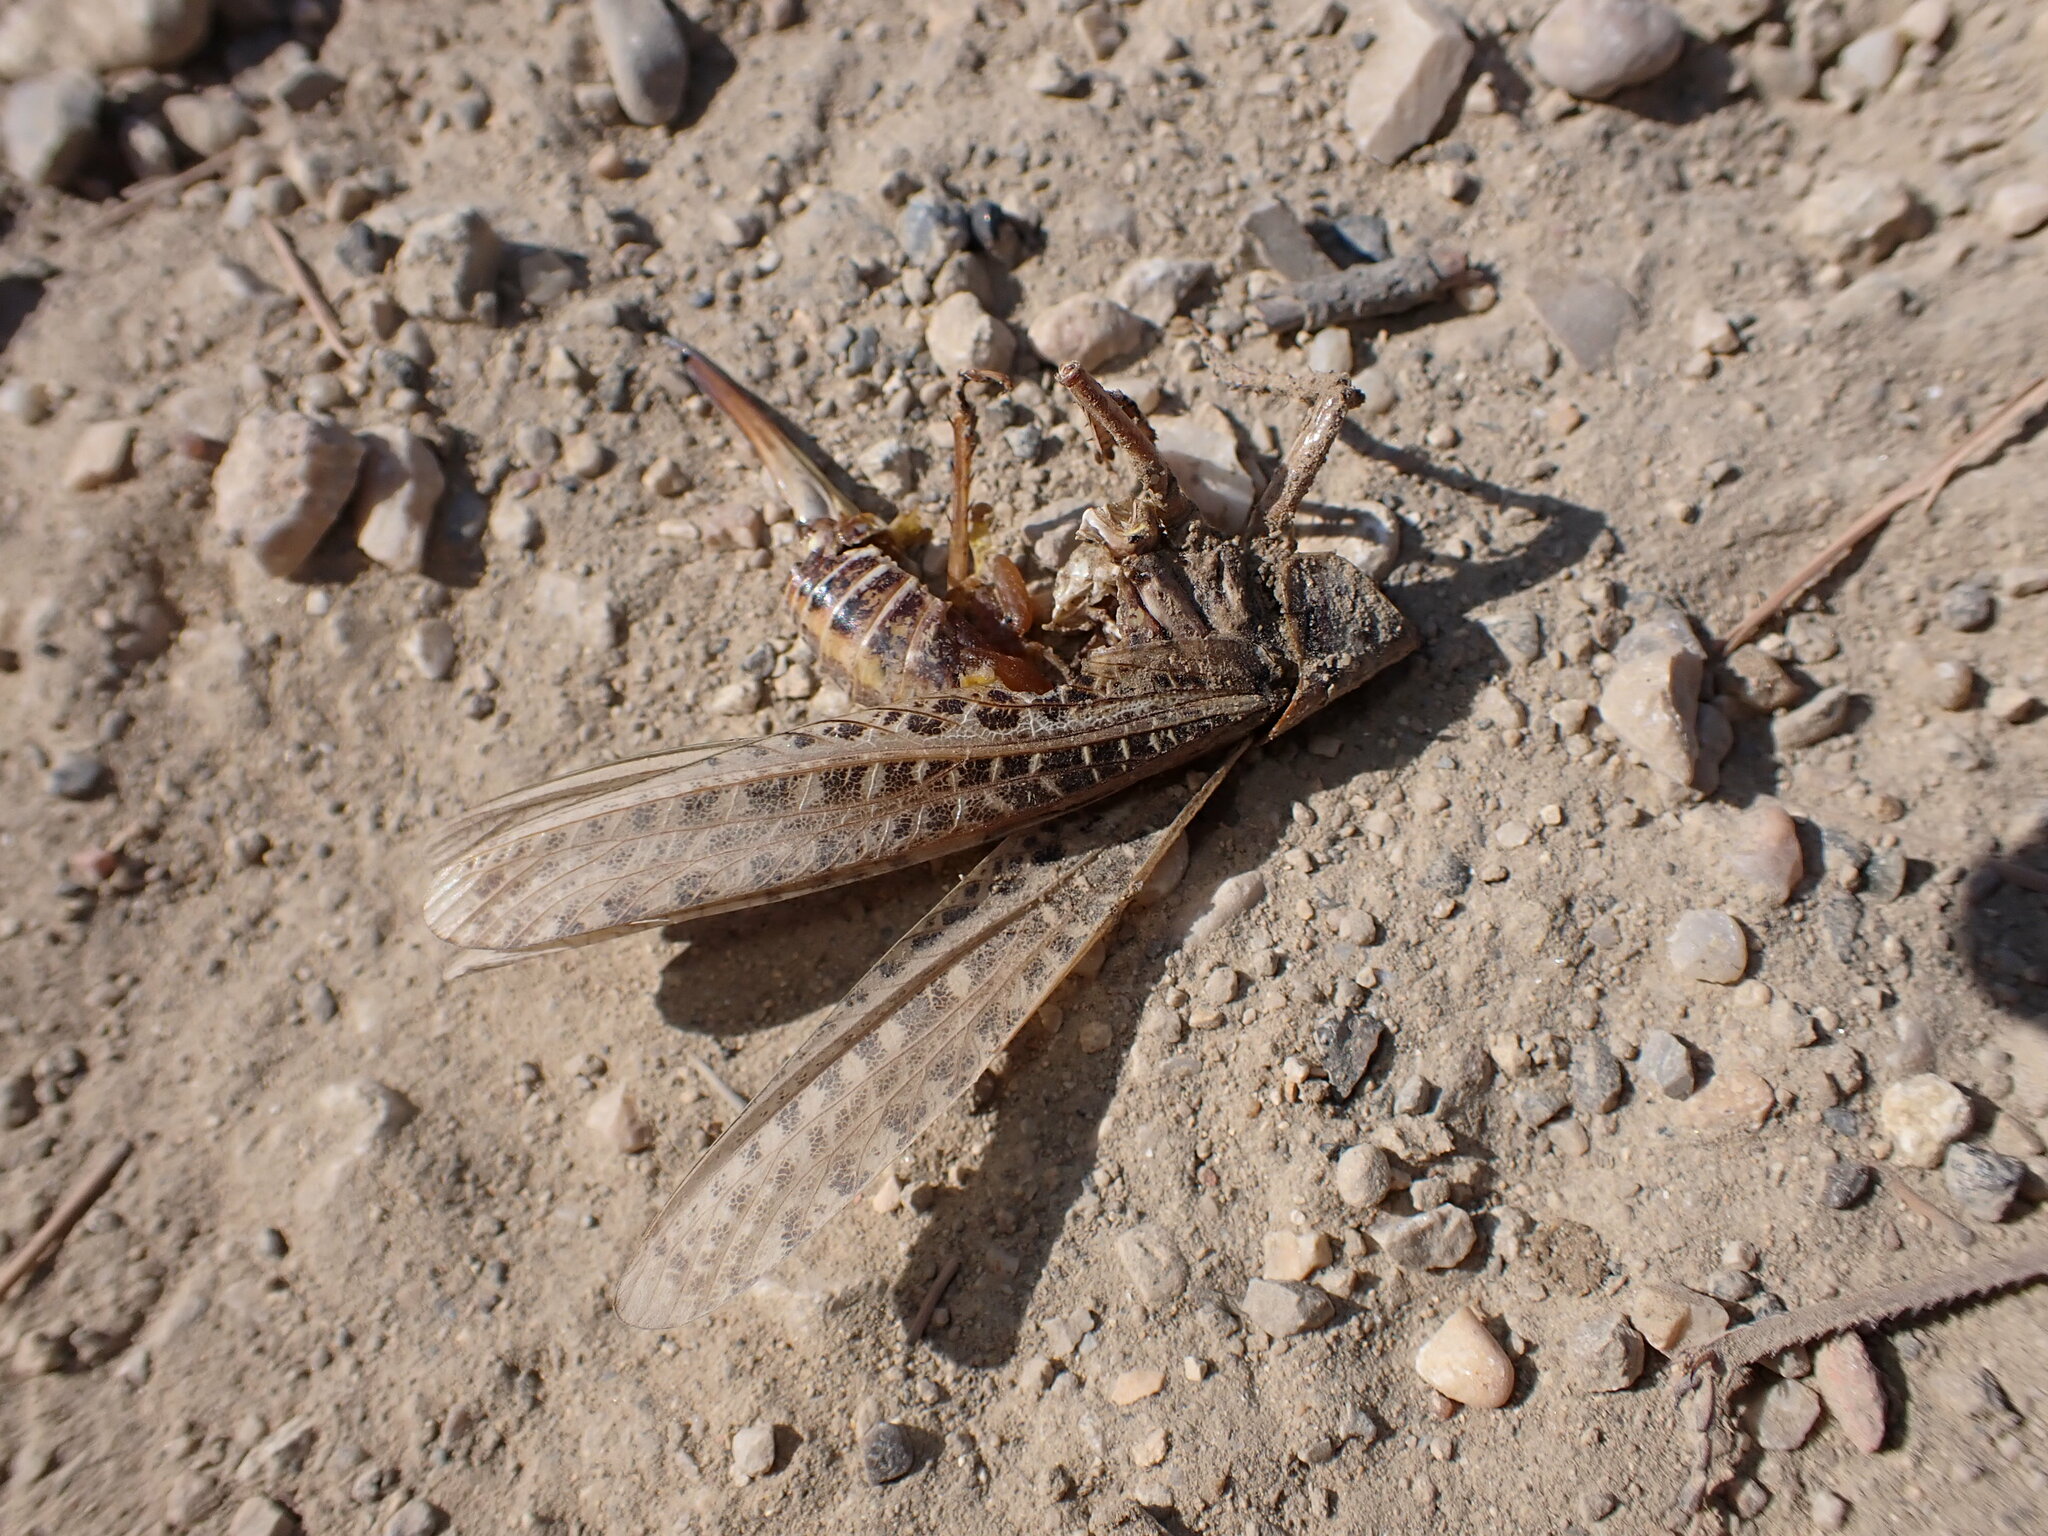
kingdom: Animalia
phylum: Arthropoda
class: Insecta
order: Orthoptera
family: Tettigoniidae
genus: Decticus
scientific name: Decticus albifrons
